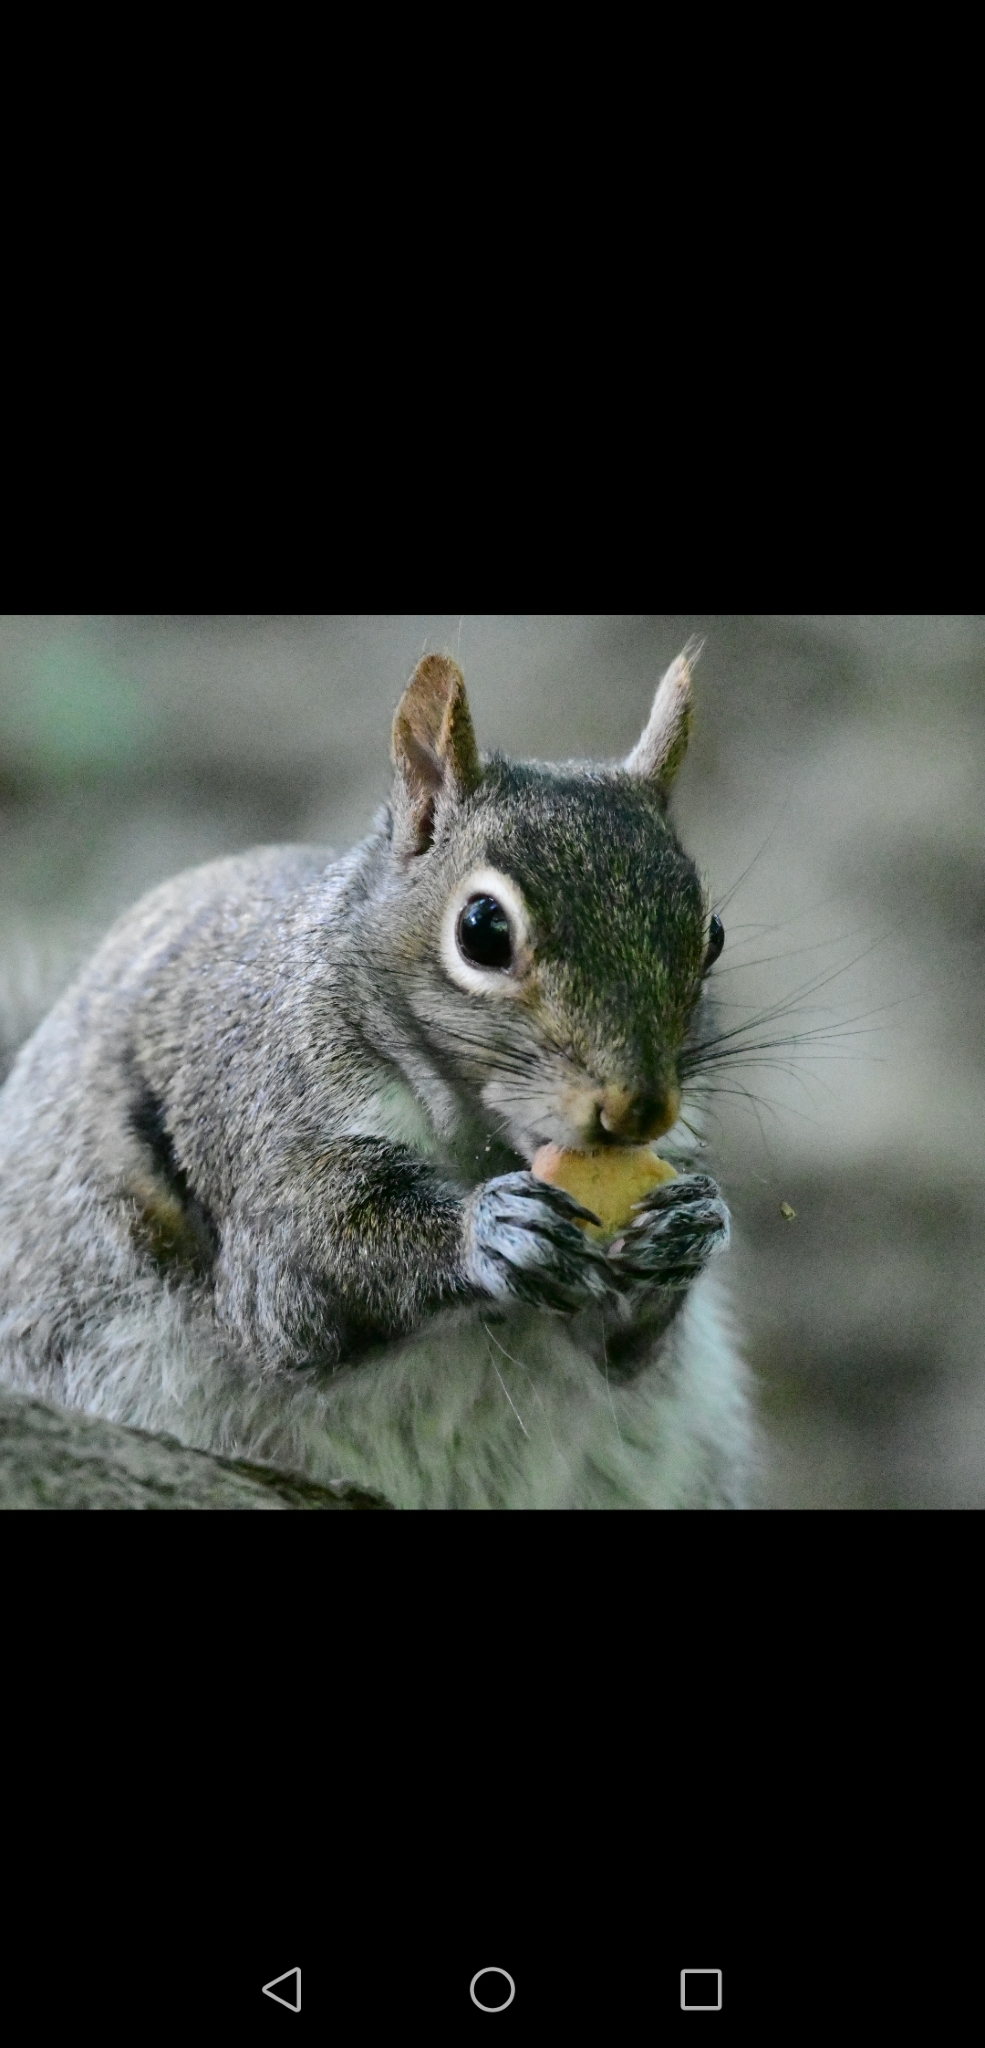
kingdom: Animalia
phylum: Chordata
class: Mammalia
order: Rodentia
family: Sciuridae
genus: Sciurus
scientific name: Sciurus carolinensis
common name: Eastern gray squirrel
